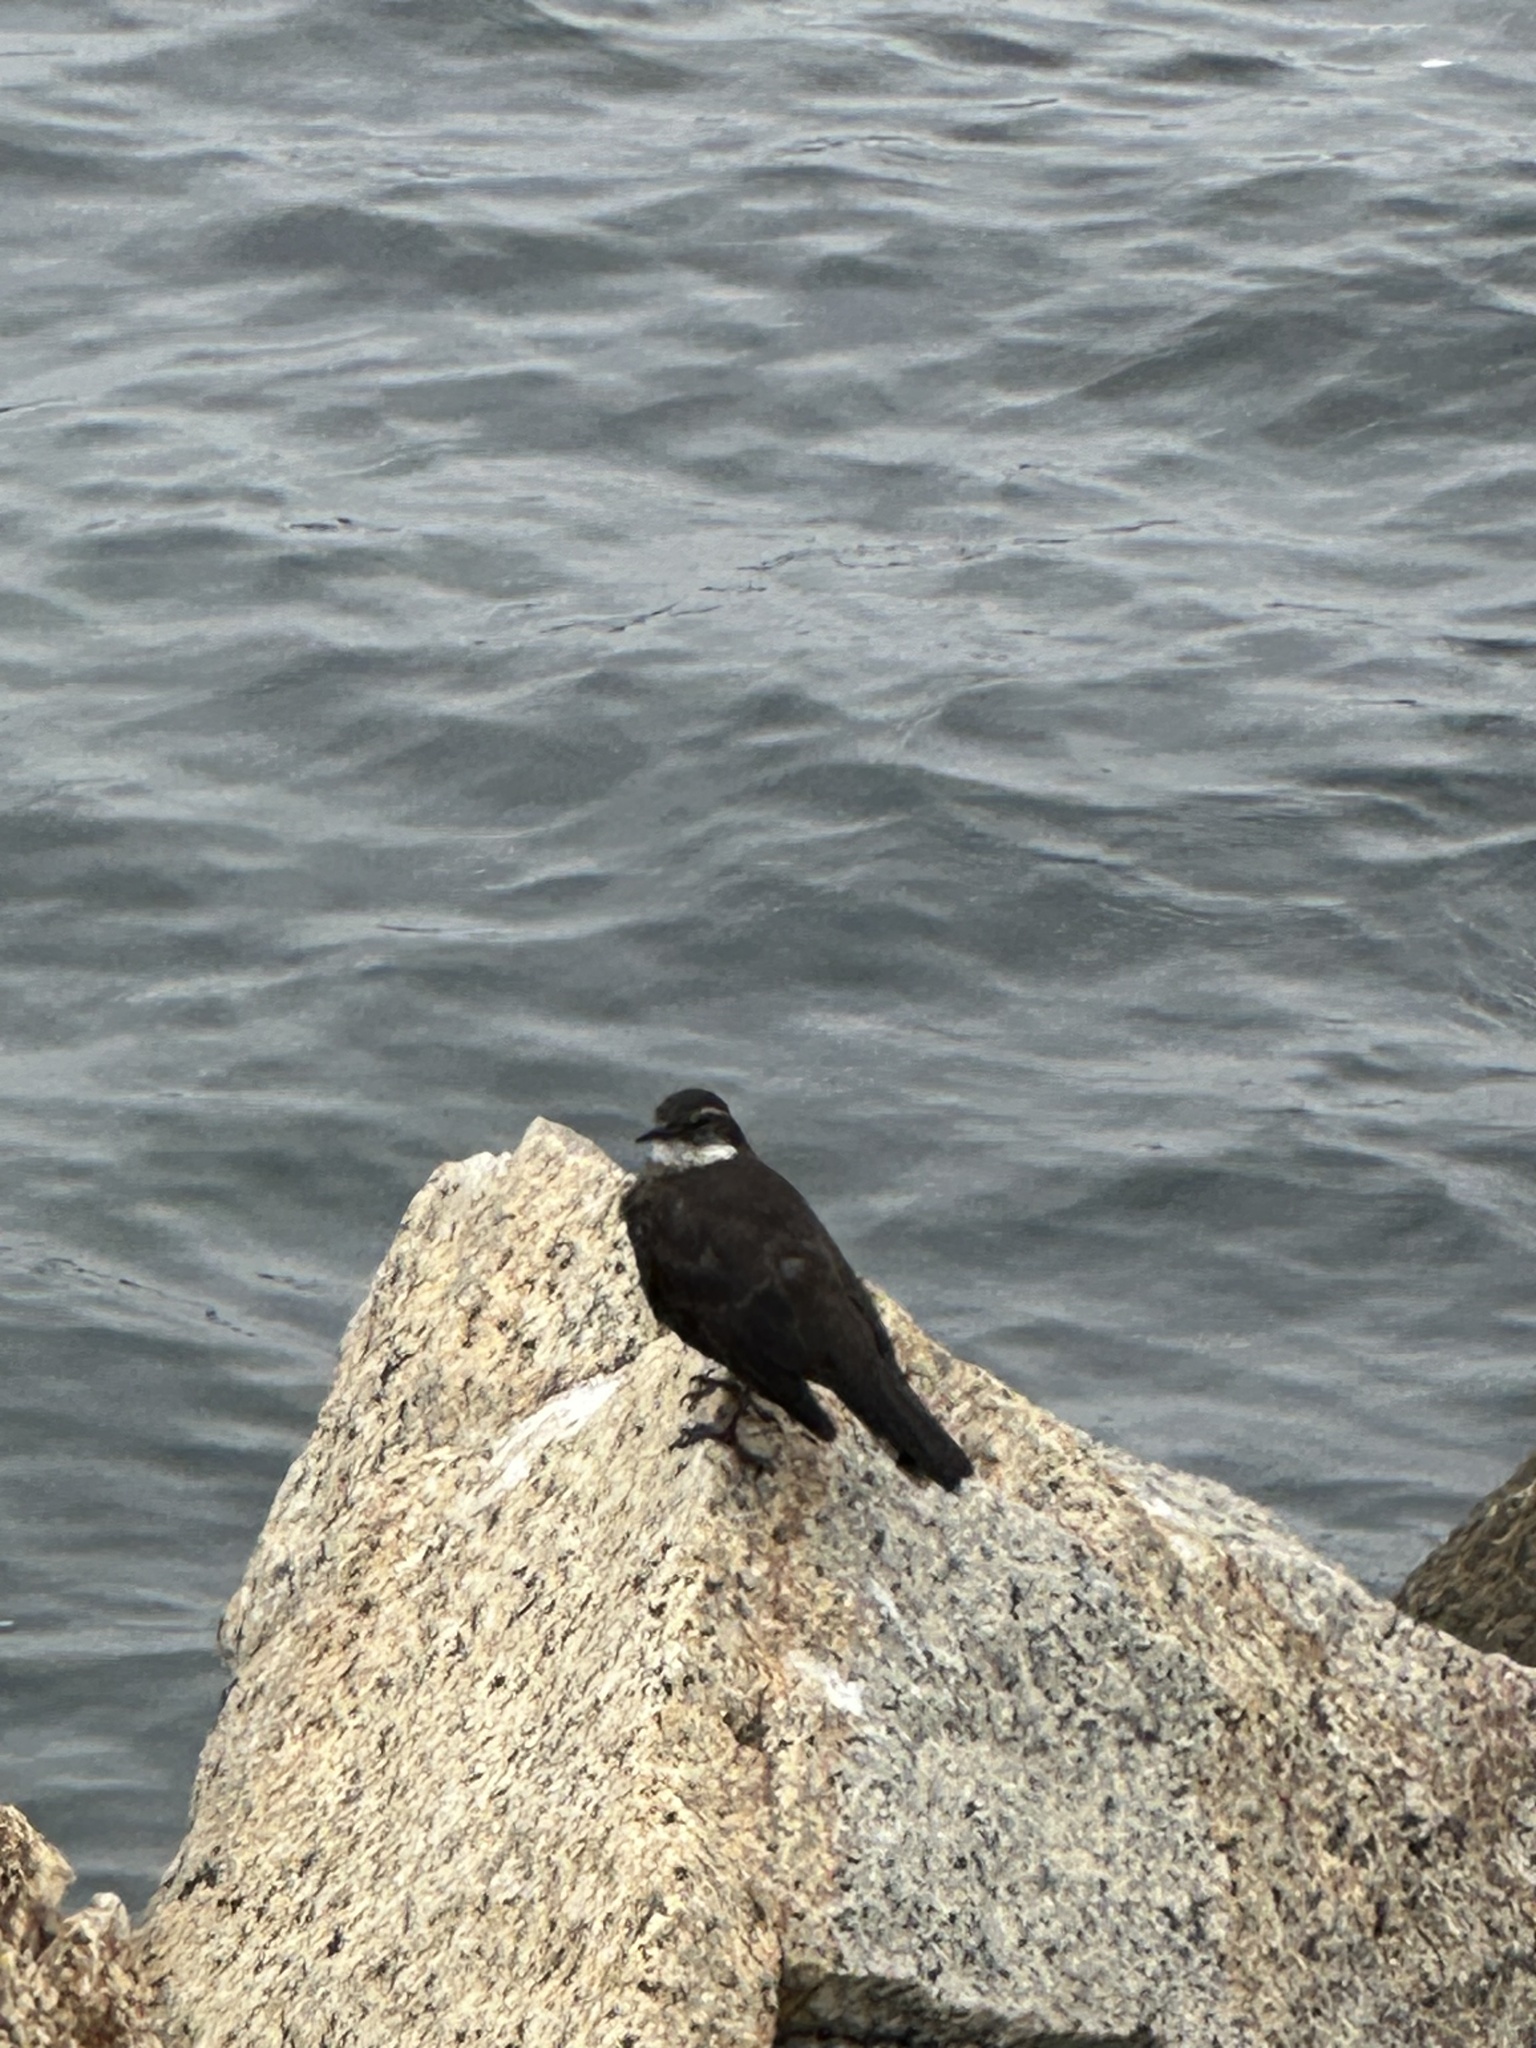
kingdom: Animalia
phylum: Chordata
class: Aves
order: Passeriformes
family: Furnariidae
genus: Cinclodes
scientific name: Cinclodes nigrofumosus
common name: Chilean seaside cinclodes
